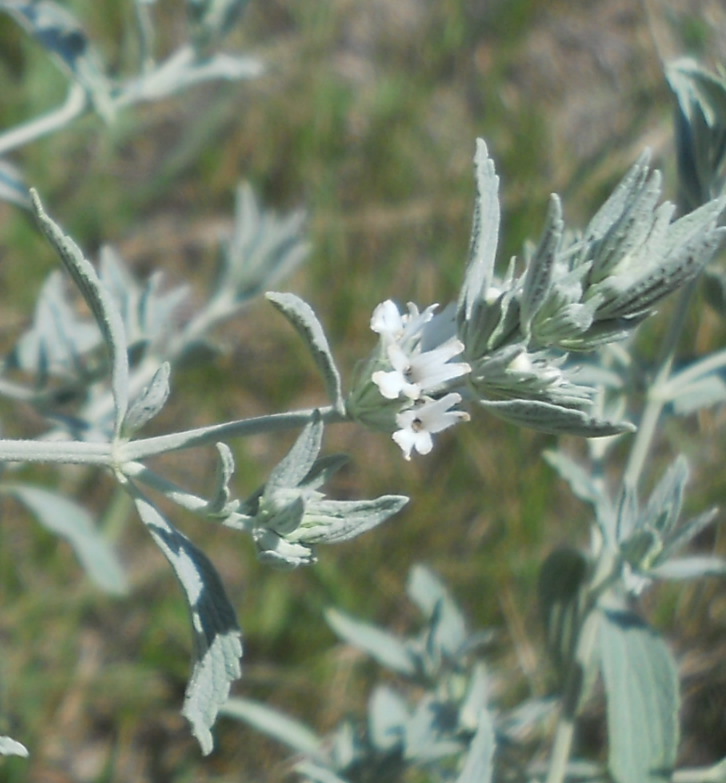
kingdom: Plantae
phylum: Tracheophyta
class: Magnoliopsida
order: Lamiales
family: Lamiaceae
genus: Marrubium
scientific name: Marrubium peregrinum
